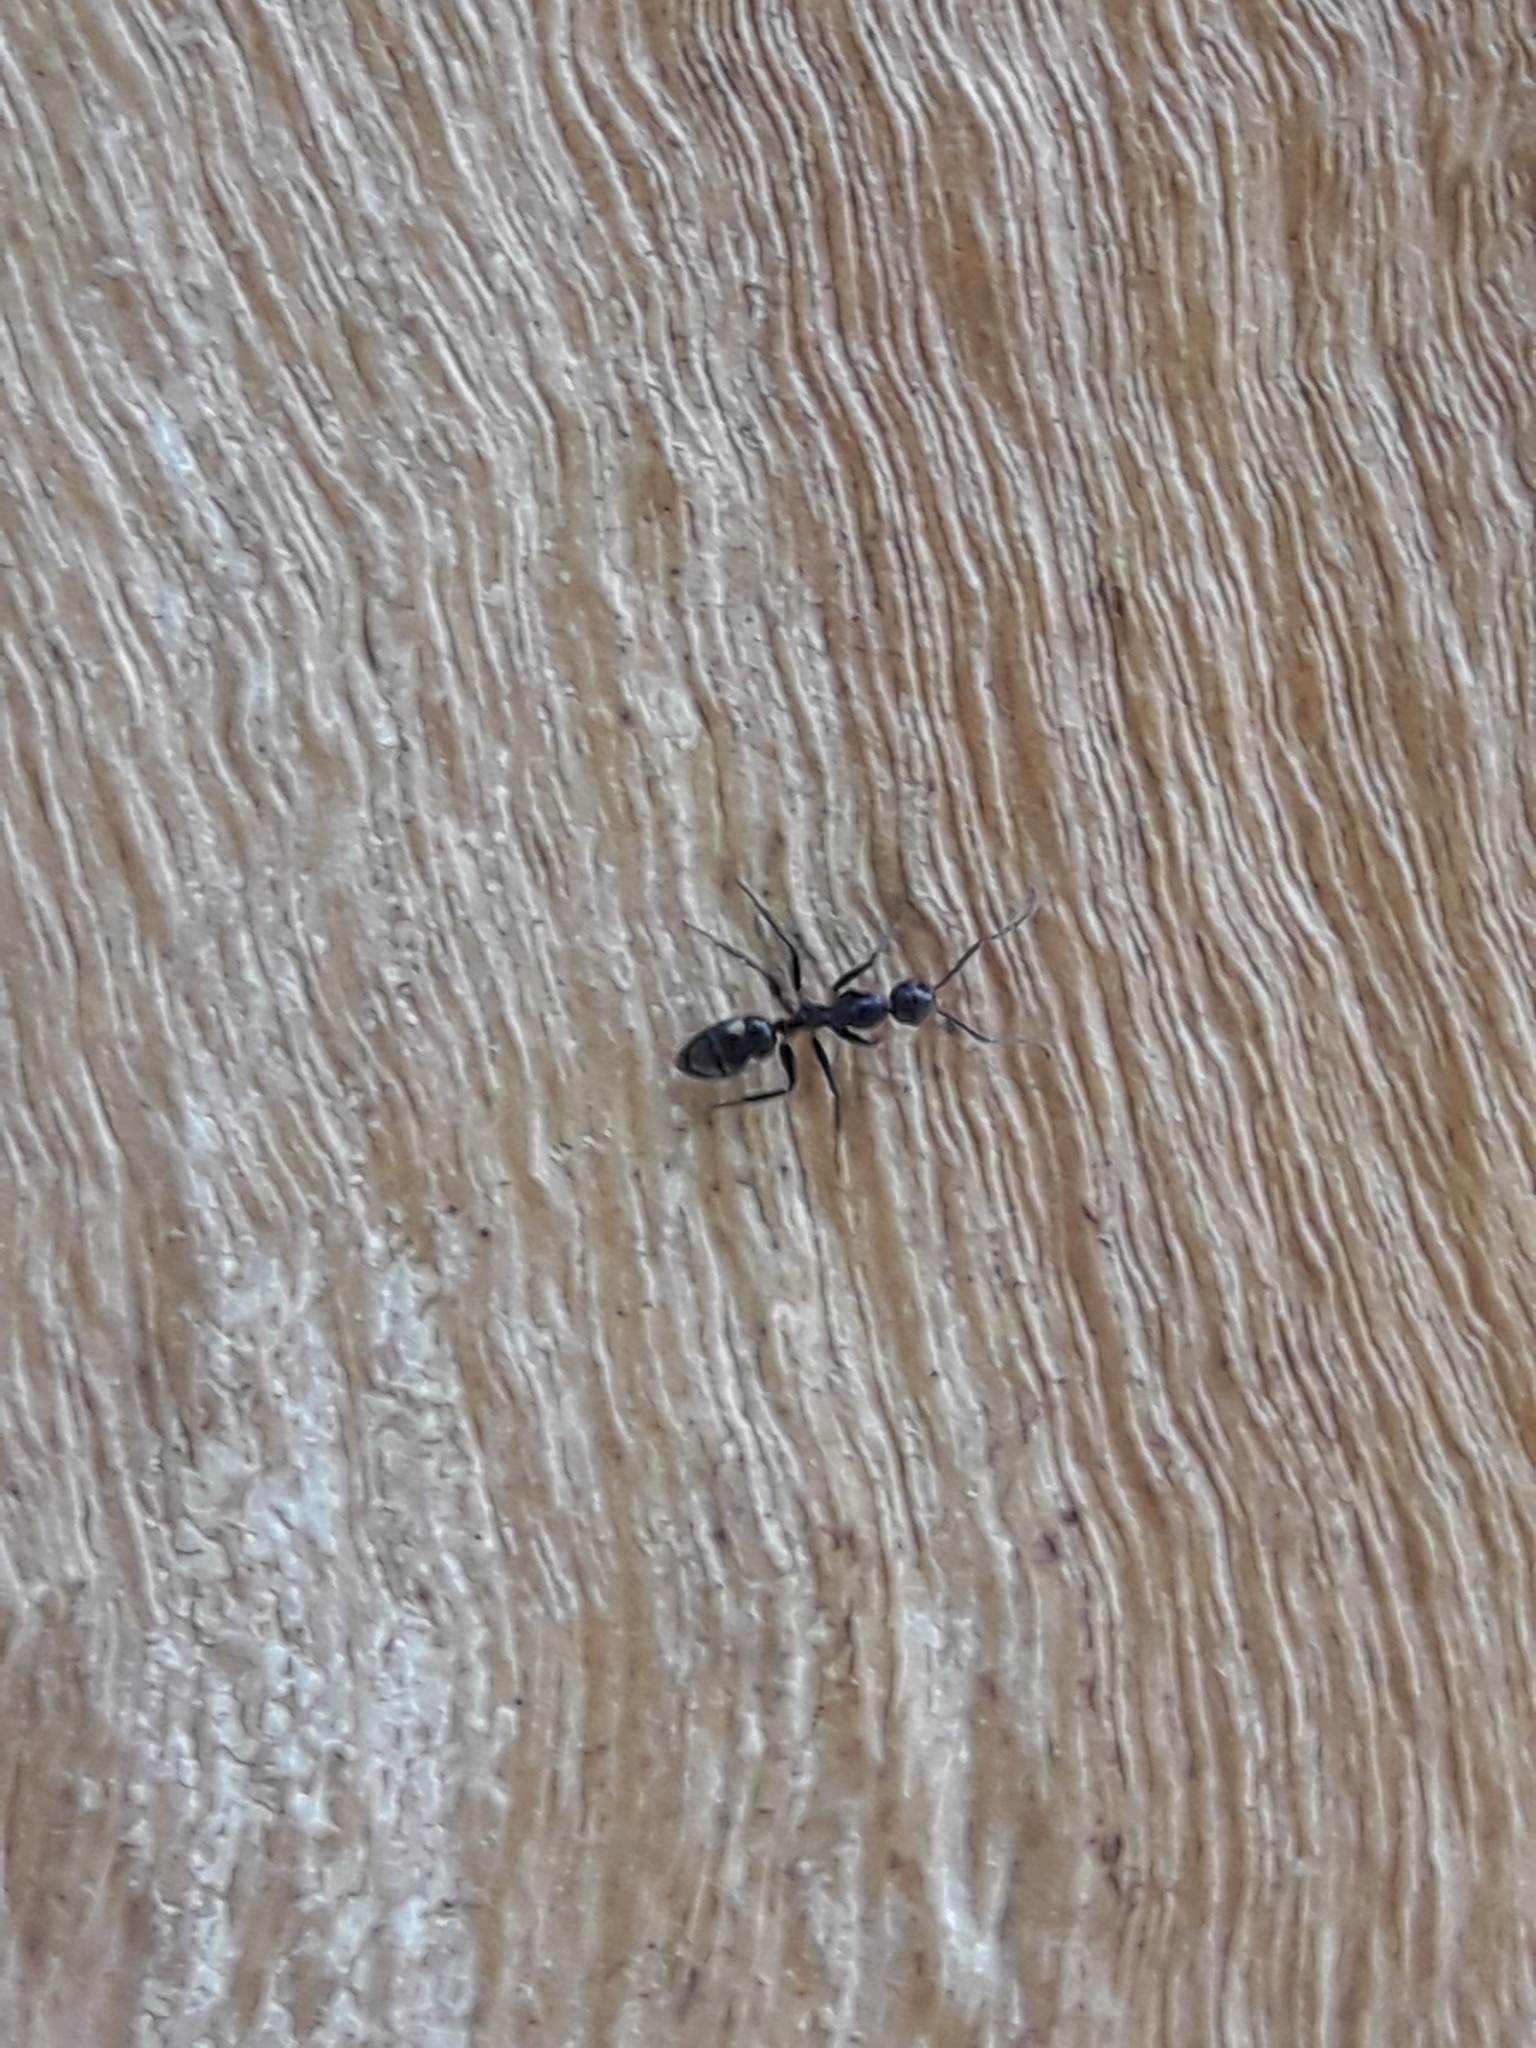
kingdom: Animalia
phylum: Arthropoda
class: Insecta
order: Hymenoptera
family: Formicidae
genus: Camponotus
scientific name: Camponotus sexguttatus
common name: Neotropical carpenter ant
